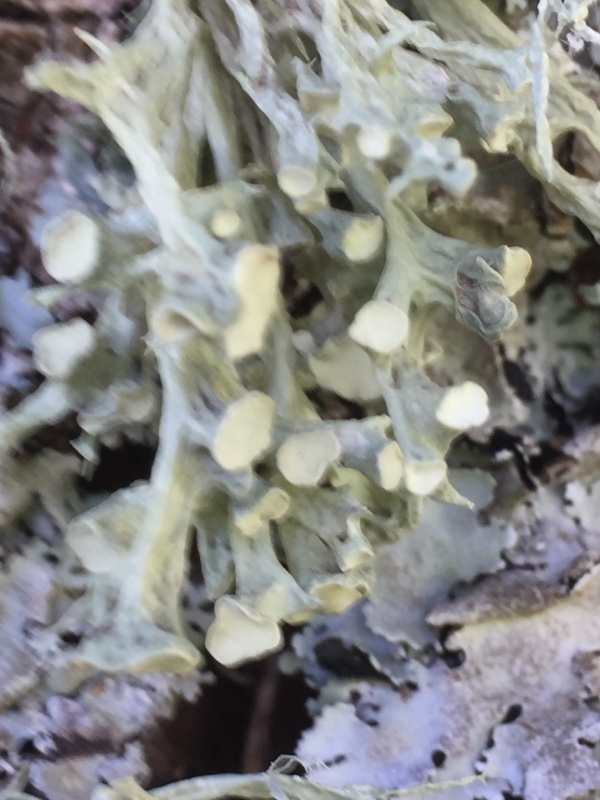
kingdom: Fungi
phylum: Ascomycota
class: Lecanoromycetes
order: Lecanorales
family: Ramalinaceae
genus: Ramalina
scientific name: Ramalina fastigiata
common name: Dotted ribbon lichen
